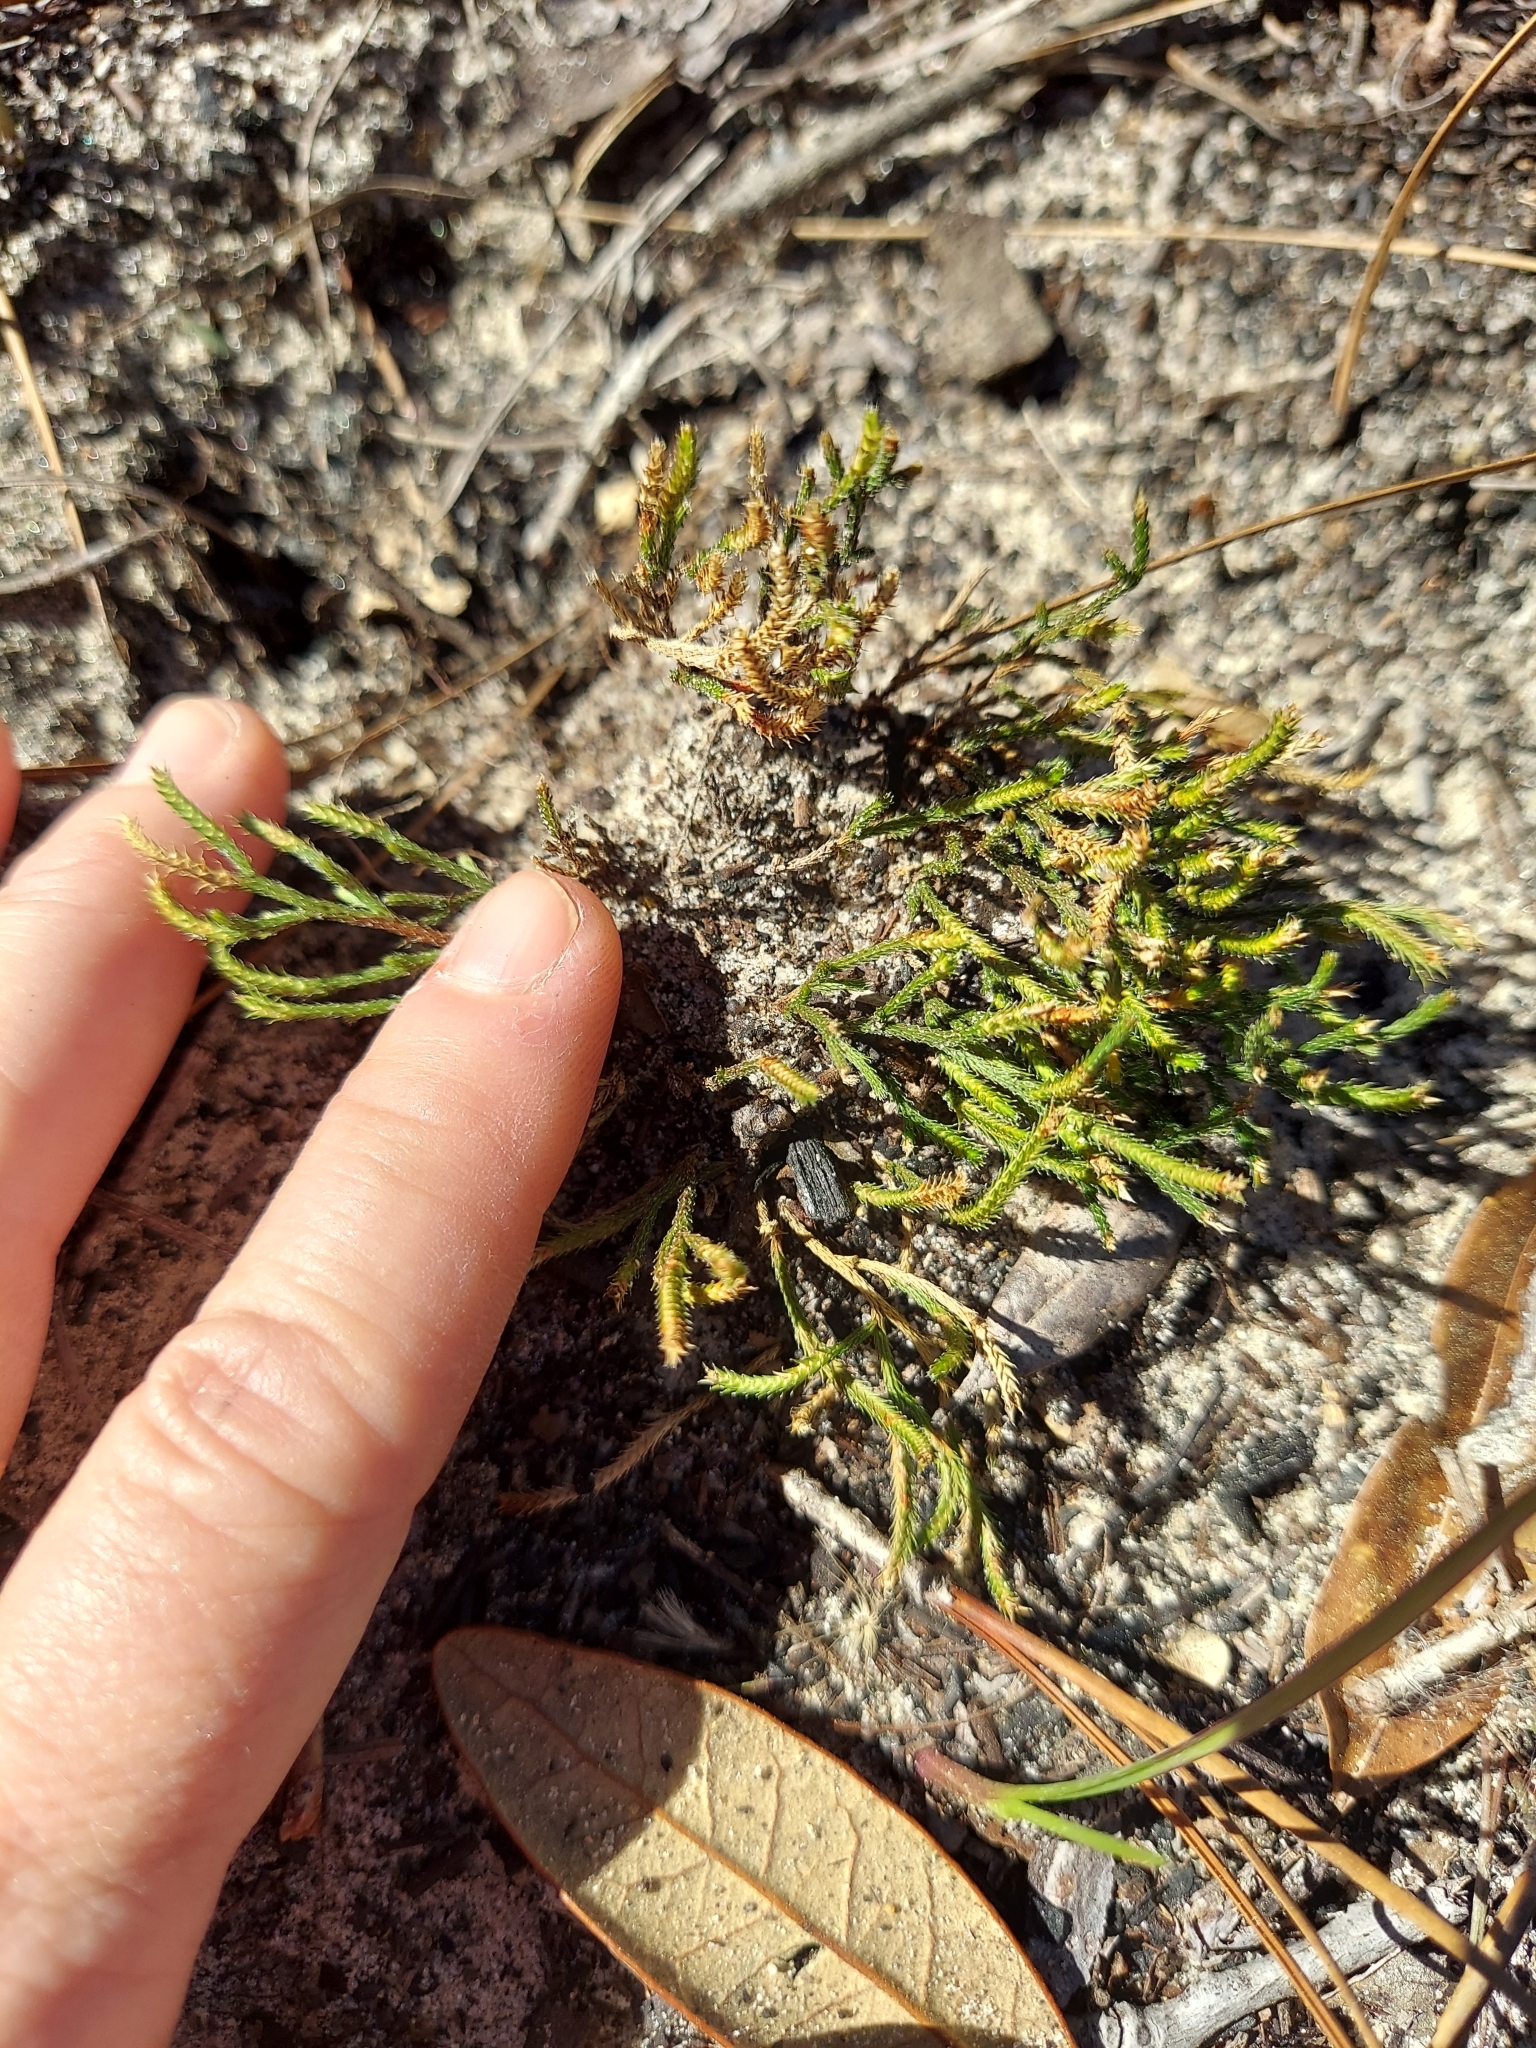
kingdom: Plantae
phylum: Tracheophyta
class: Lycopodiopsida
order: Selaginellales
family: Selaginellaceae
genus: Selaginella
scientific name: Selaginella arenicola
